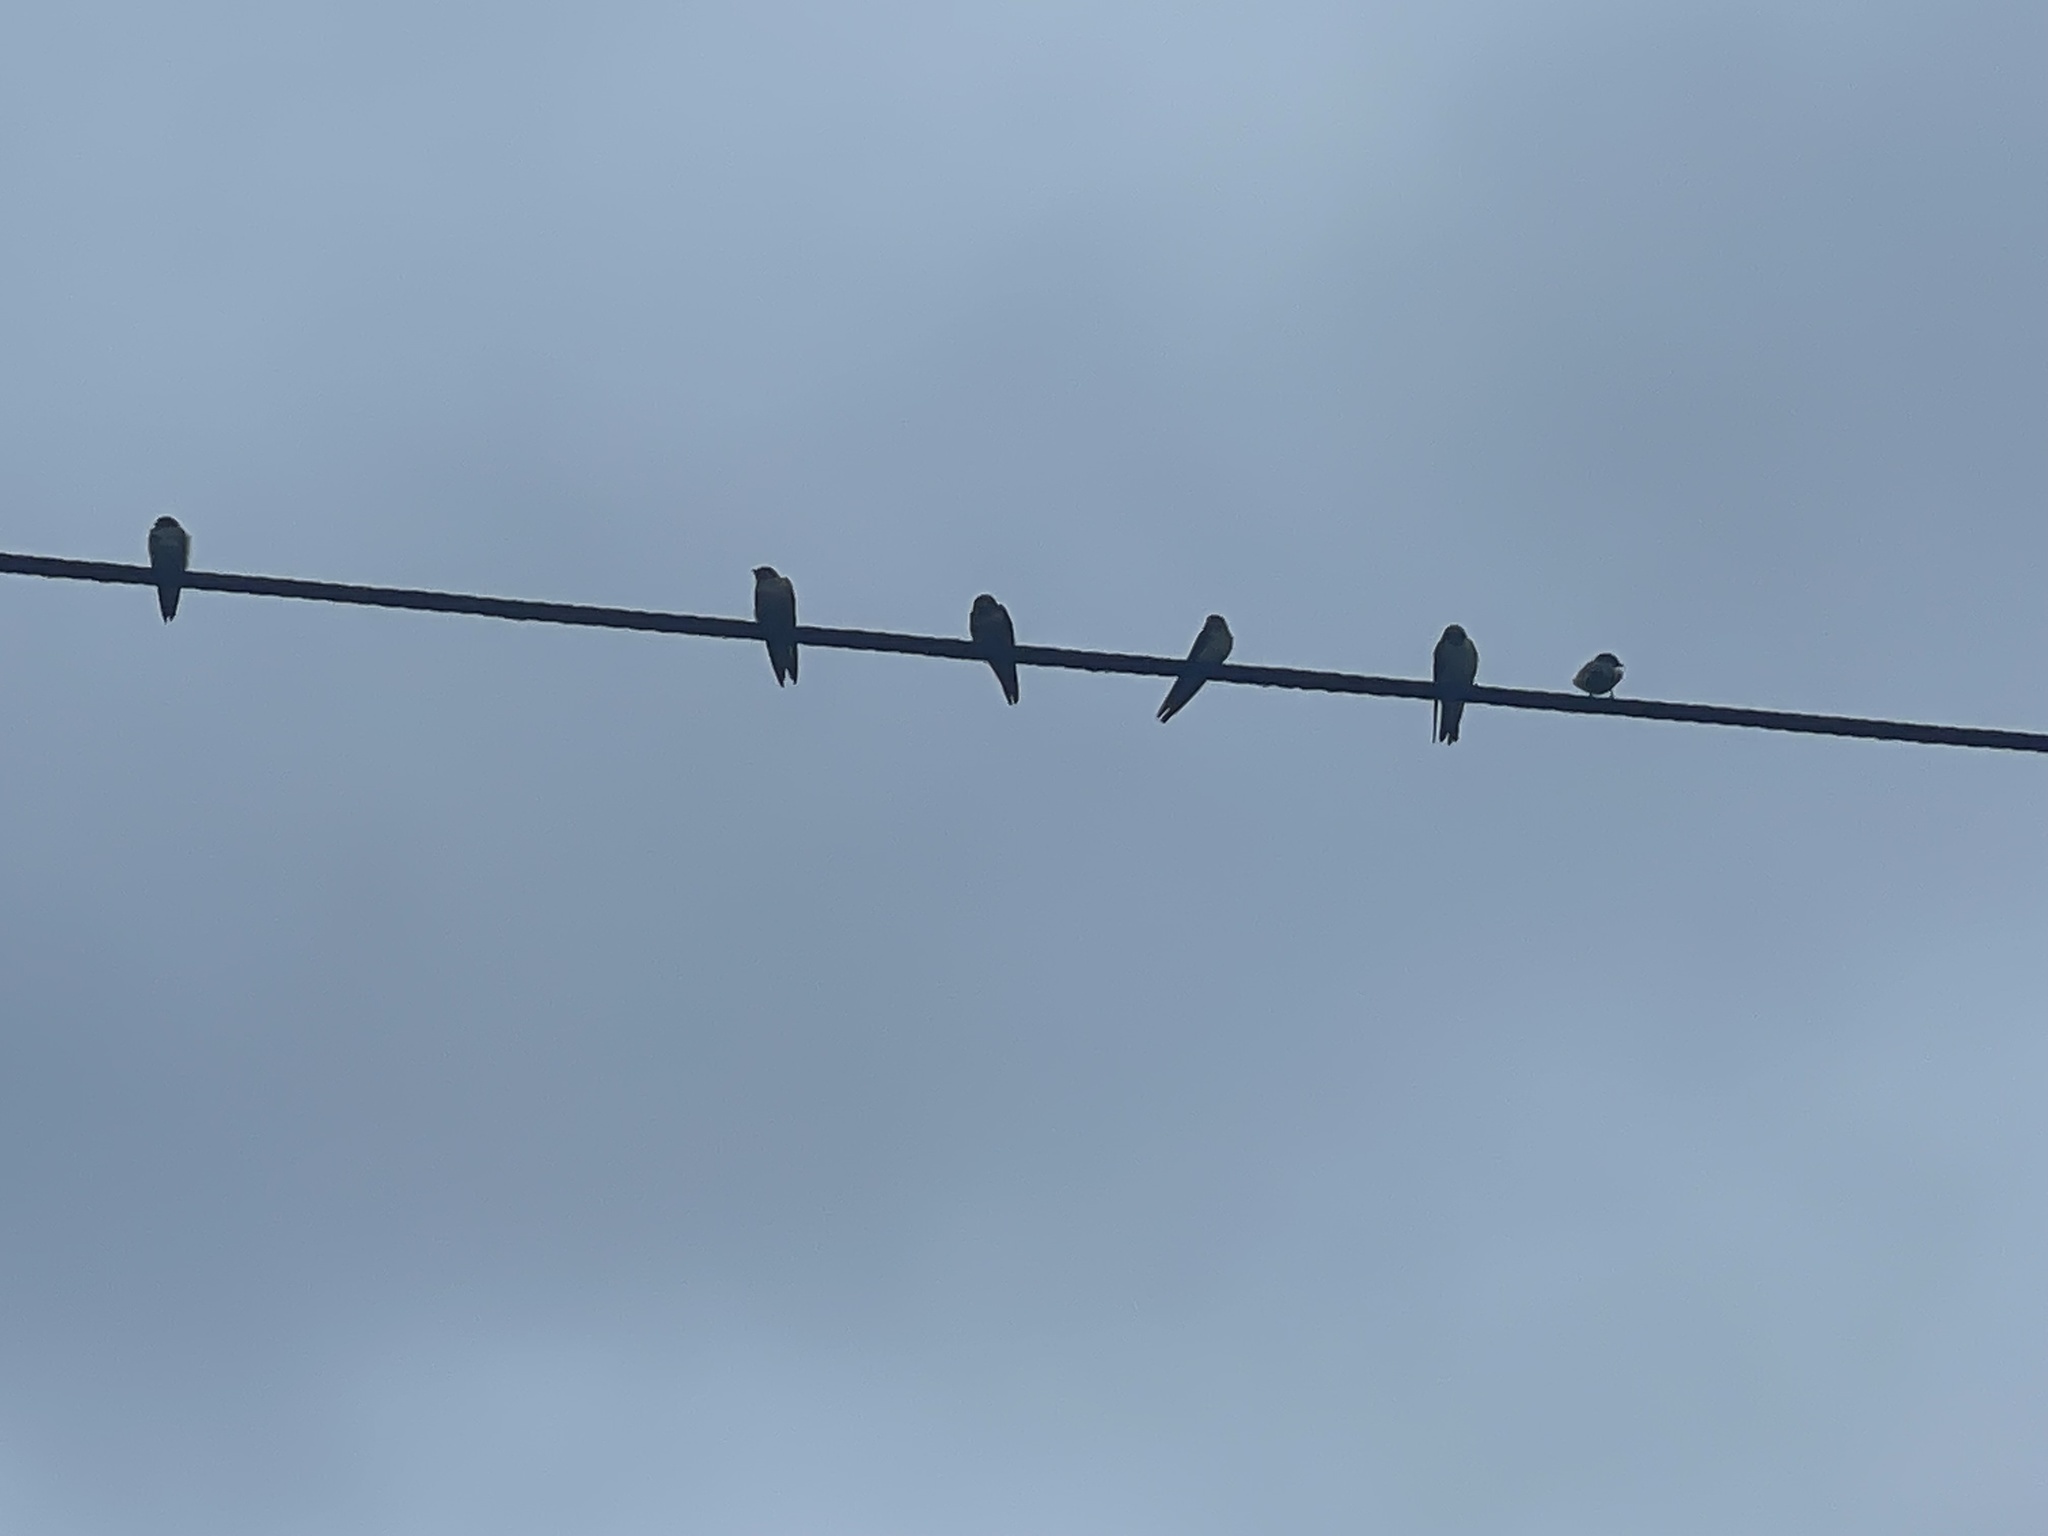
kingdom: Animalia
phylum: Chordata
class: Aves
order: Passeriformes
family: Hirundinidae
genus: Hirundo
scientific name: Hirundo rustica
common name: Barn swallow
